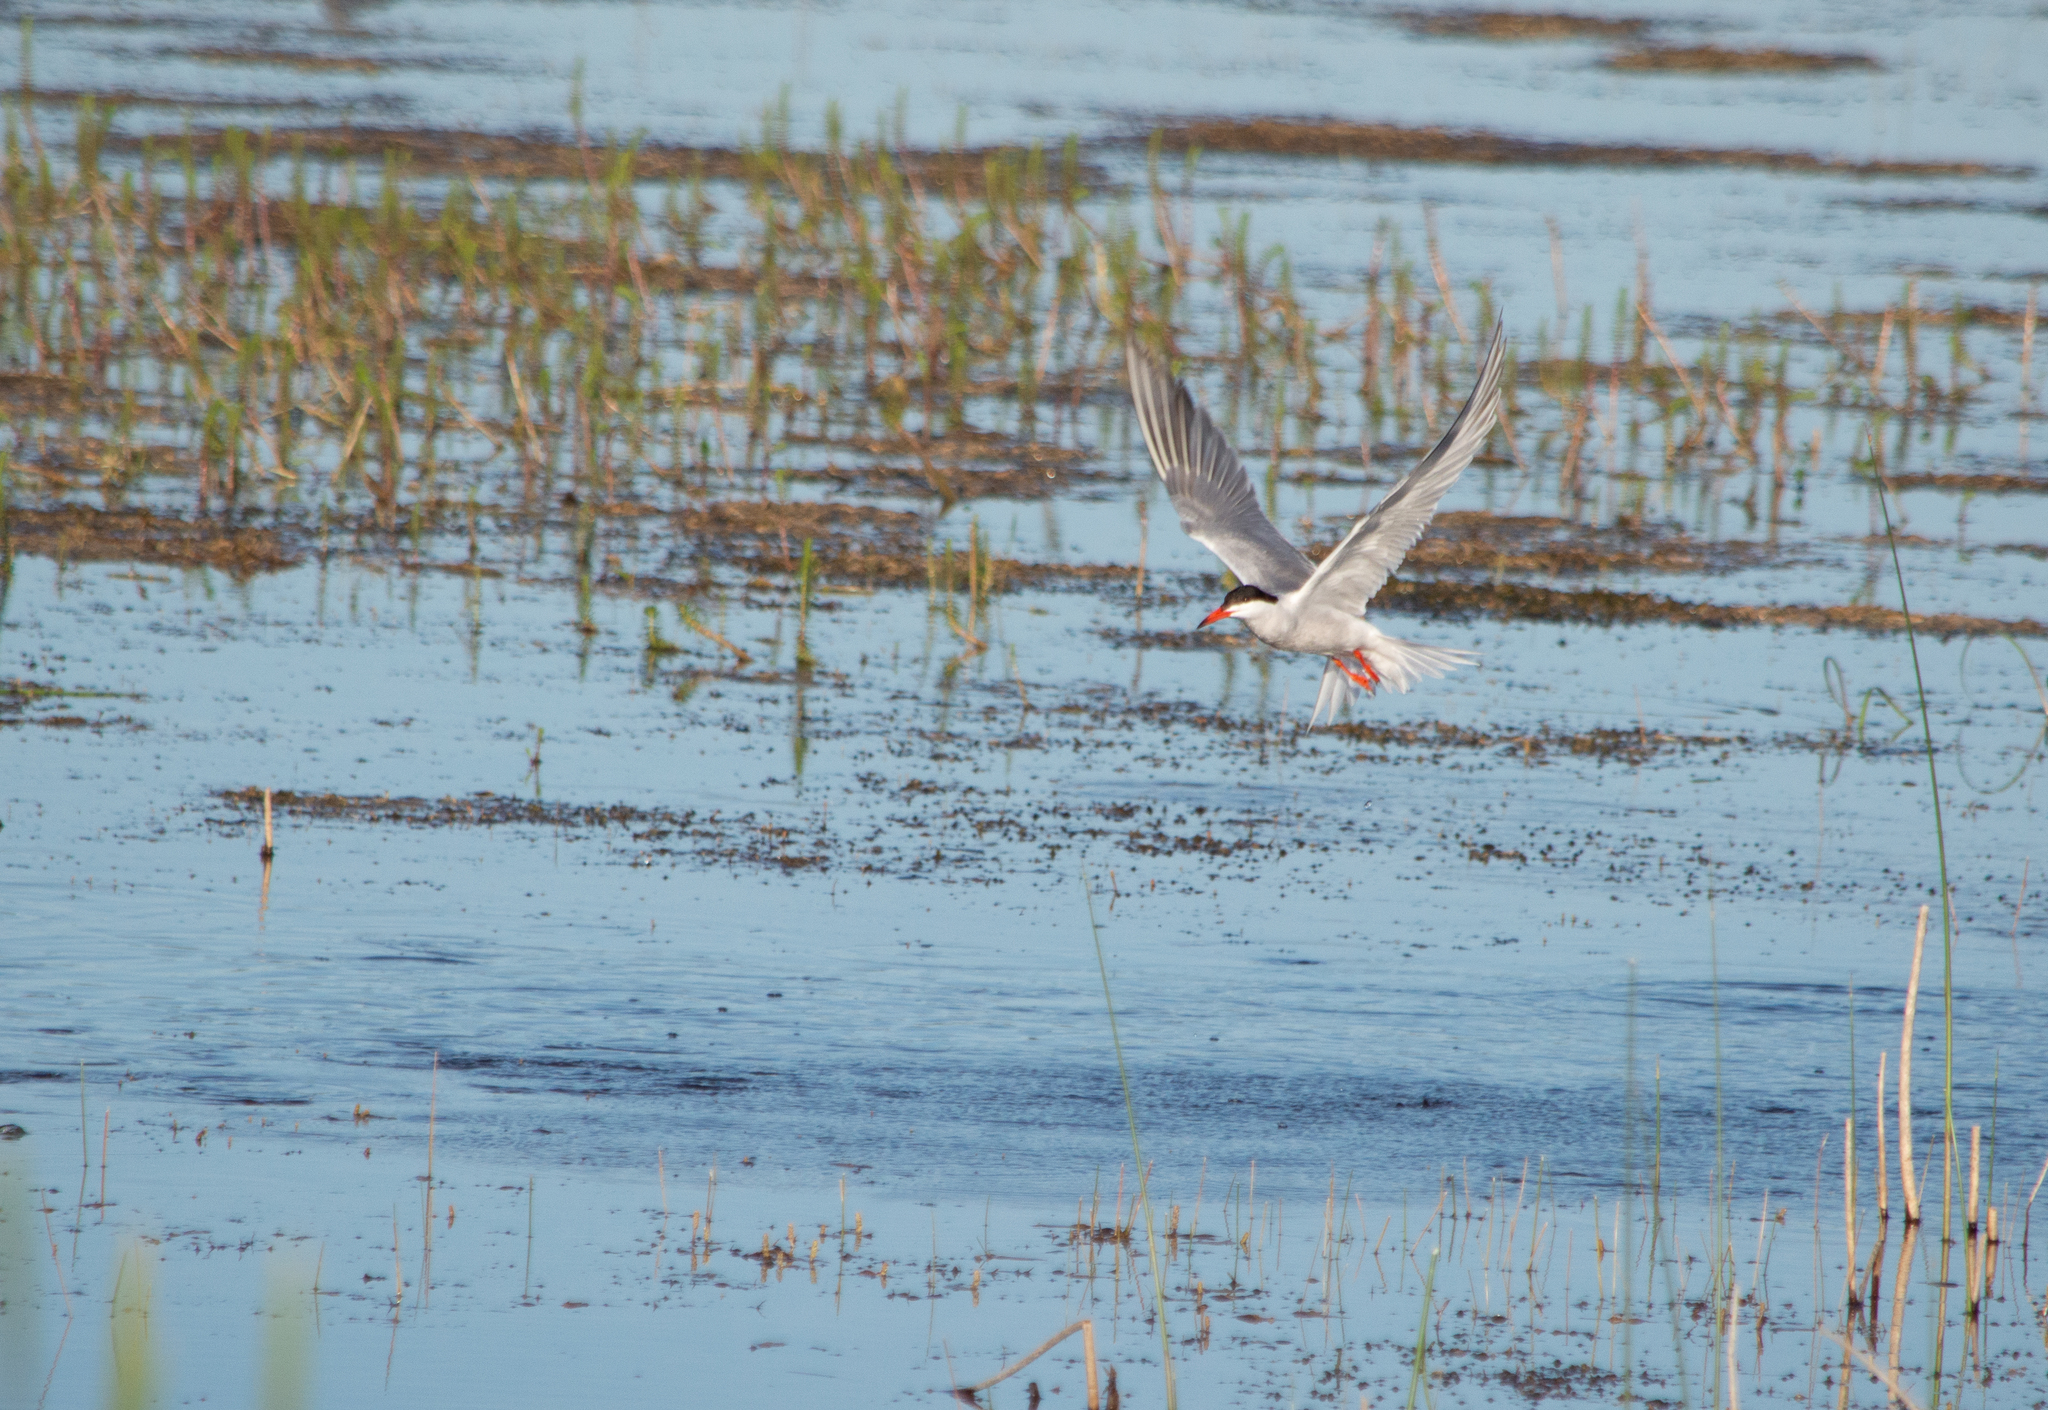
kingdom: Animalia
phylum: Chordata
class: Aves
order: Charadriiformes
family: Laridae
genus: Sterna
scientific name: Sterna hirundo
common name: Common tern
